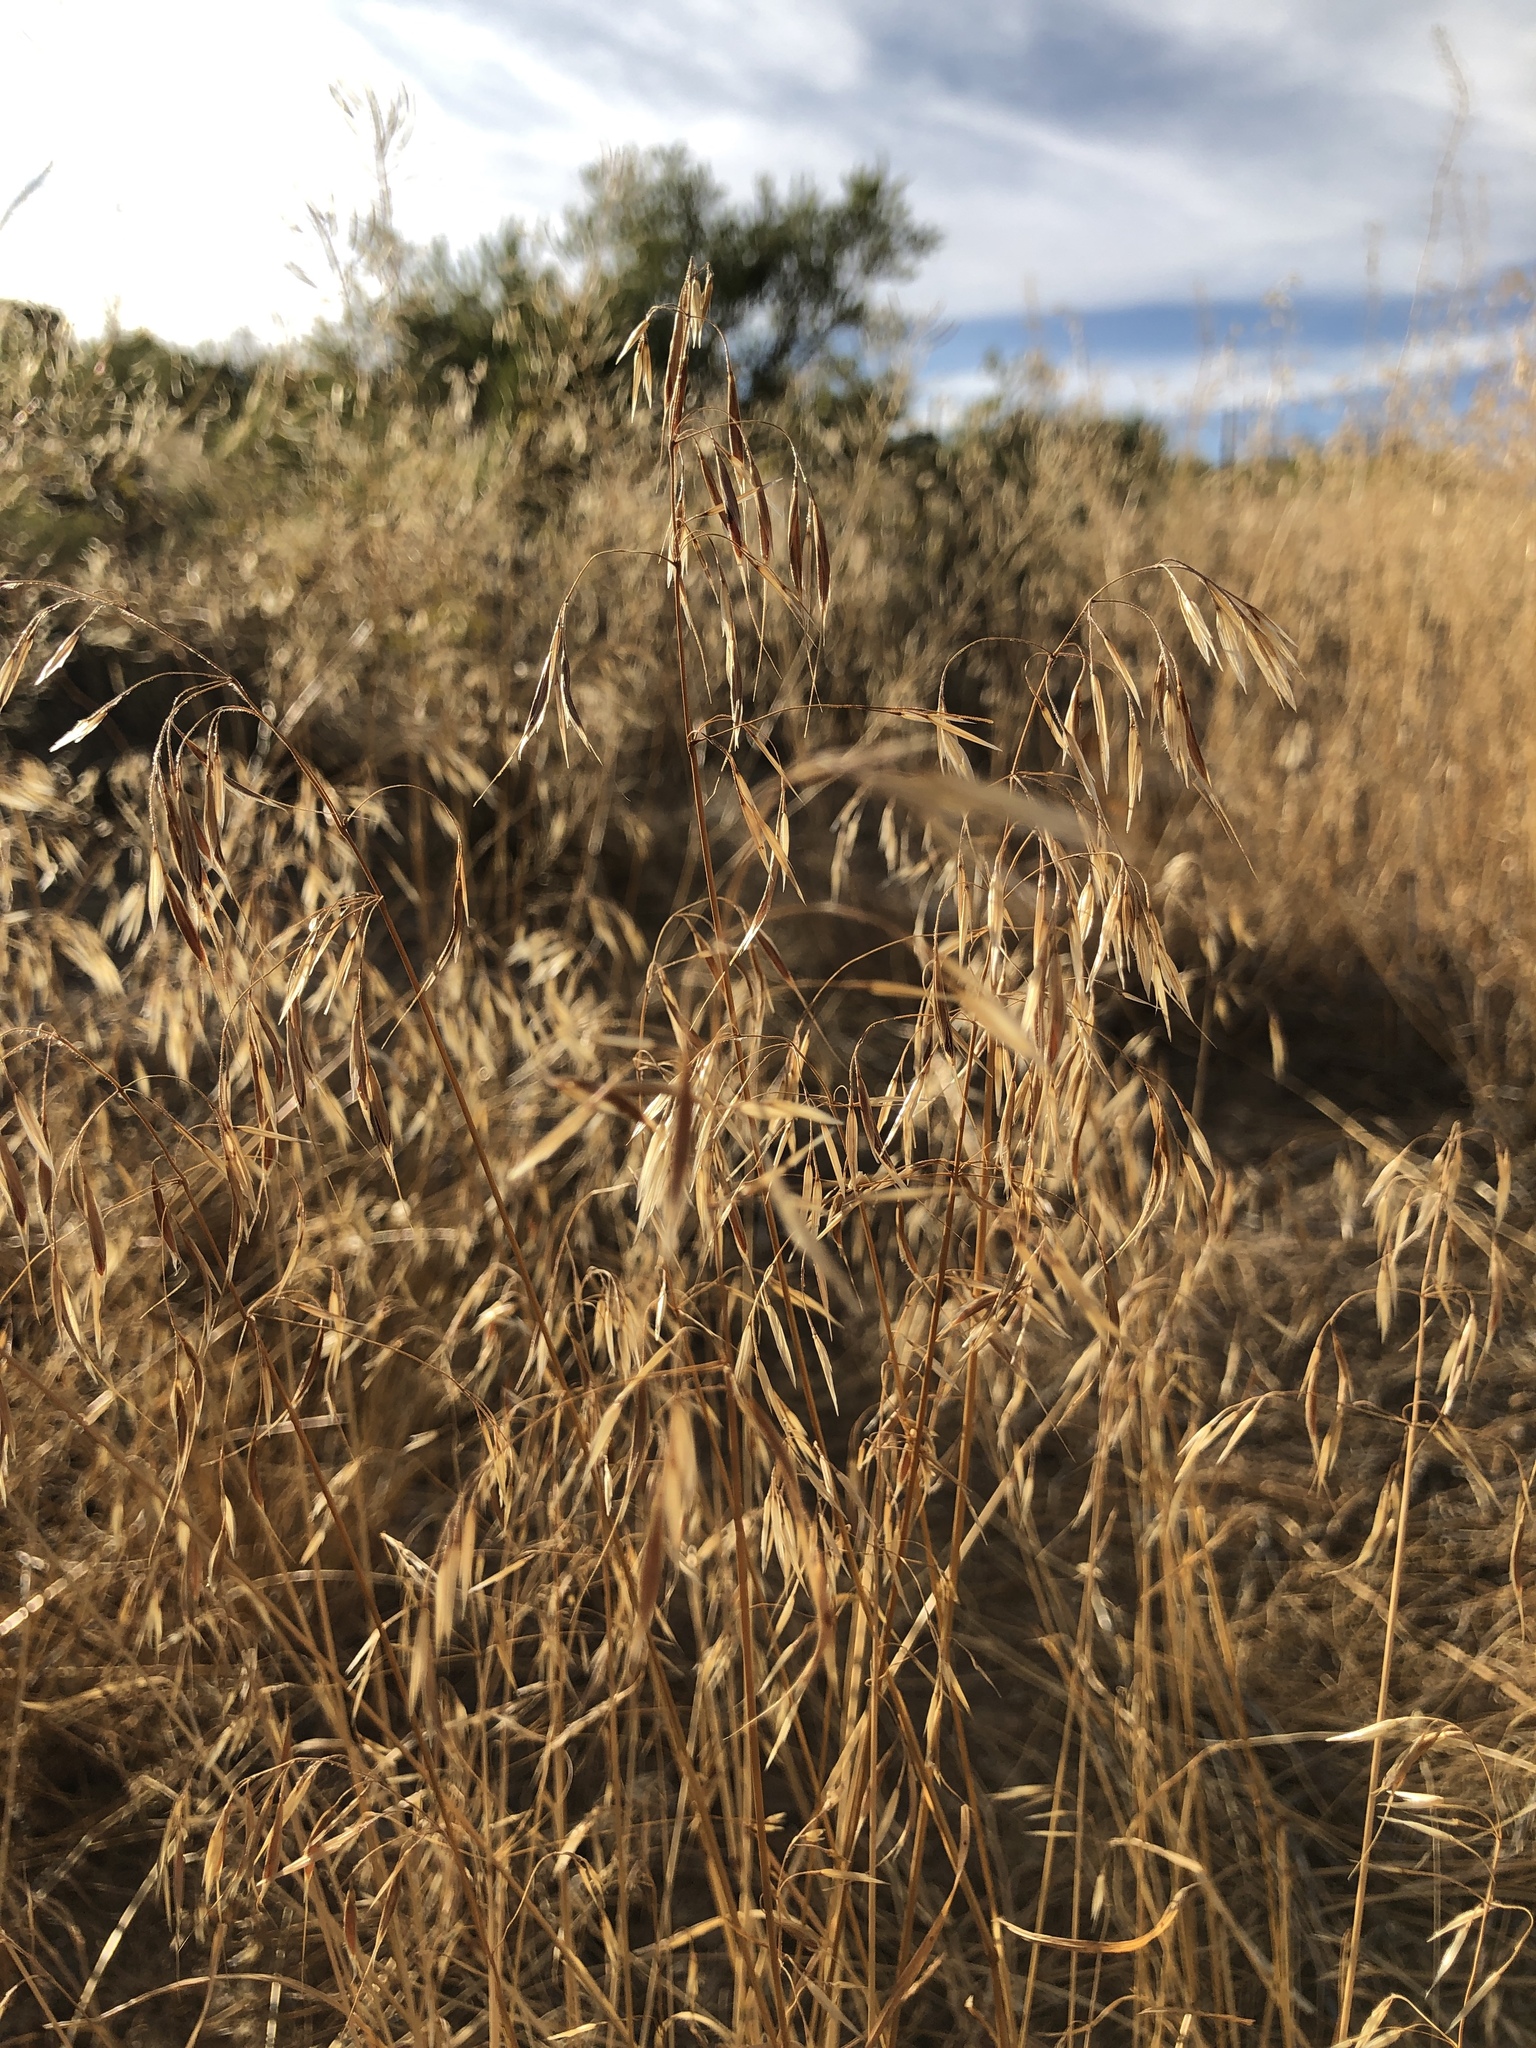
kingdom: Plantae
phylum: Tracheophyta
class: Liliopsida
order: Poales
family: Poaceae
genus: Bromus
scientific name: Bromus tectorum
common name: Cheatgrass
